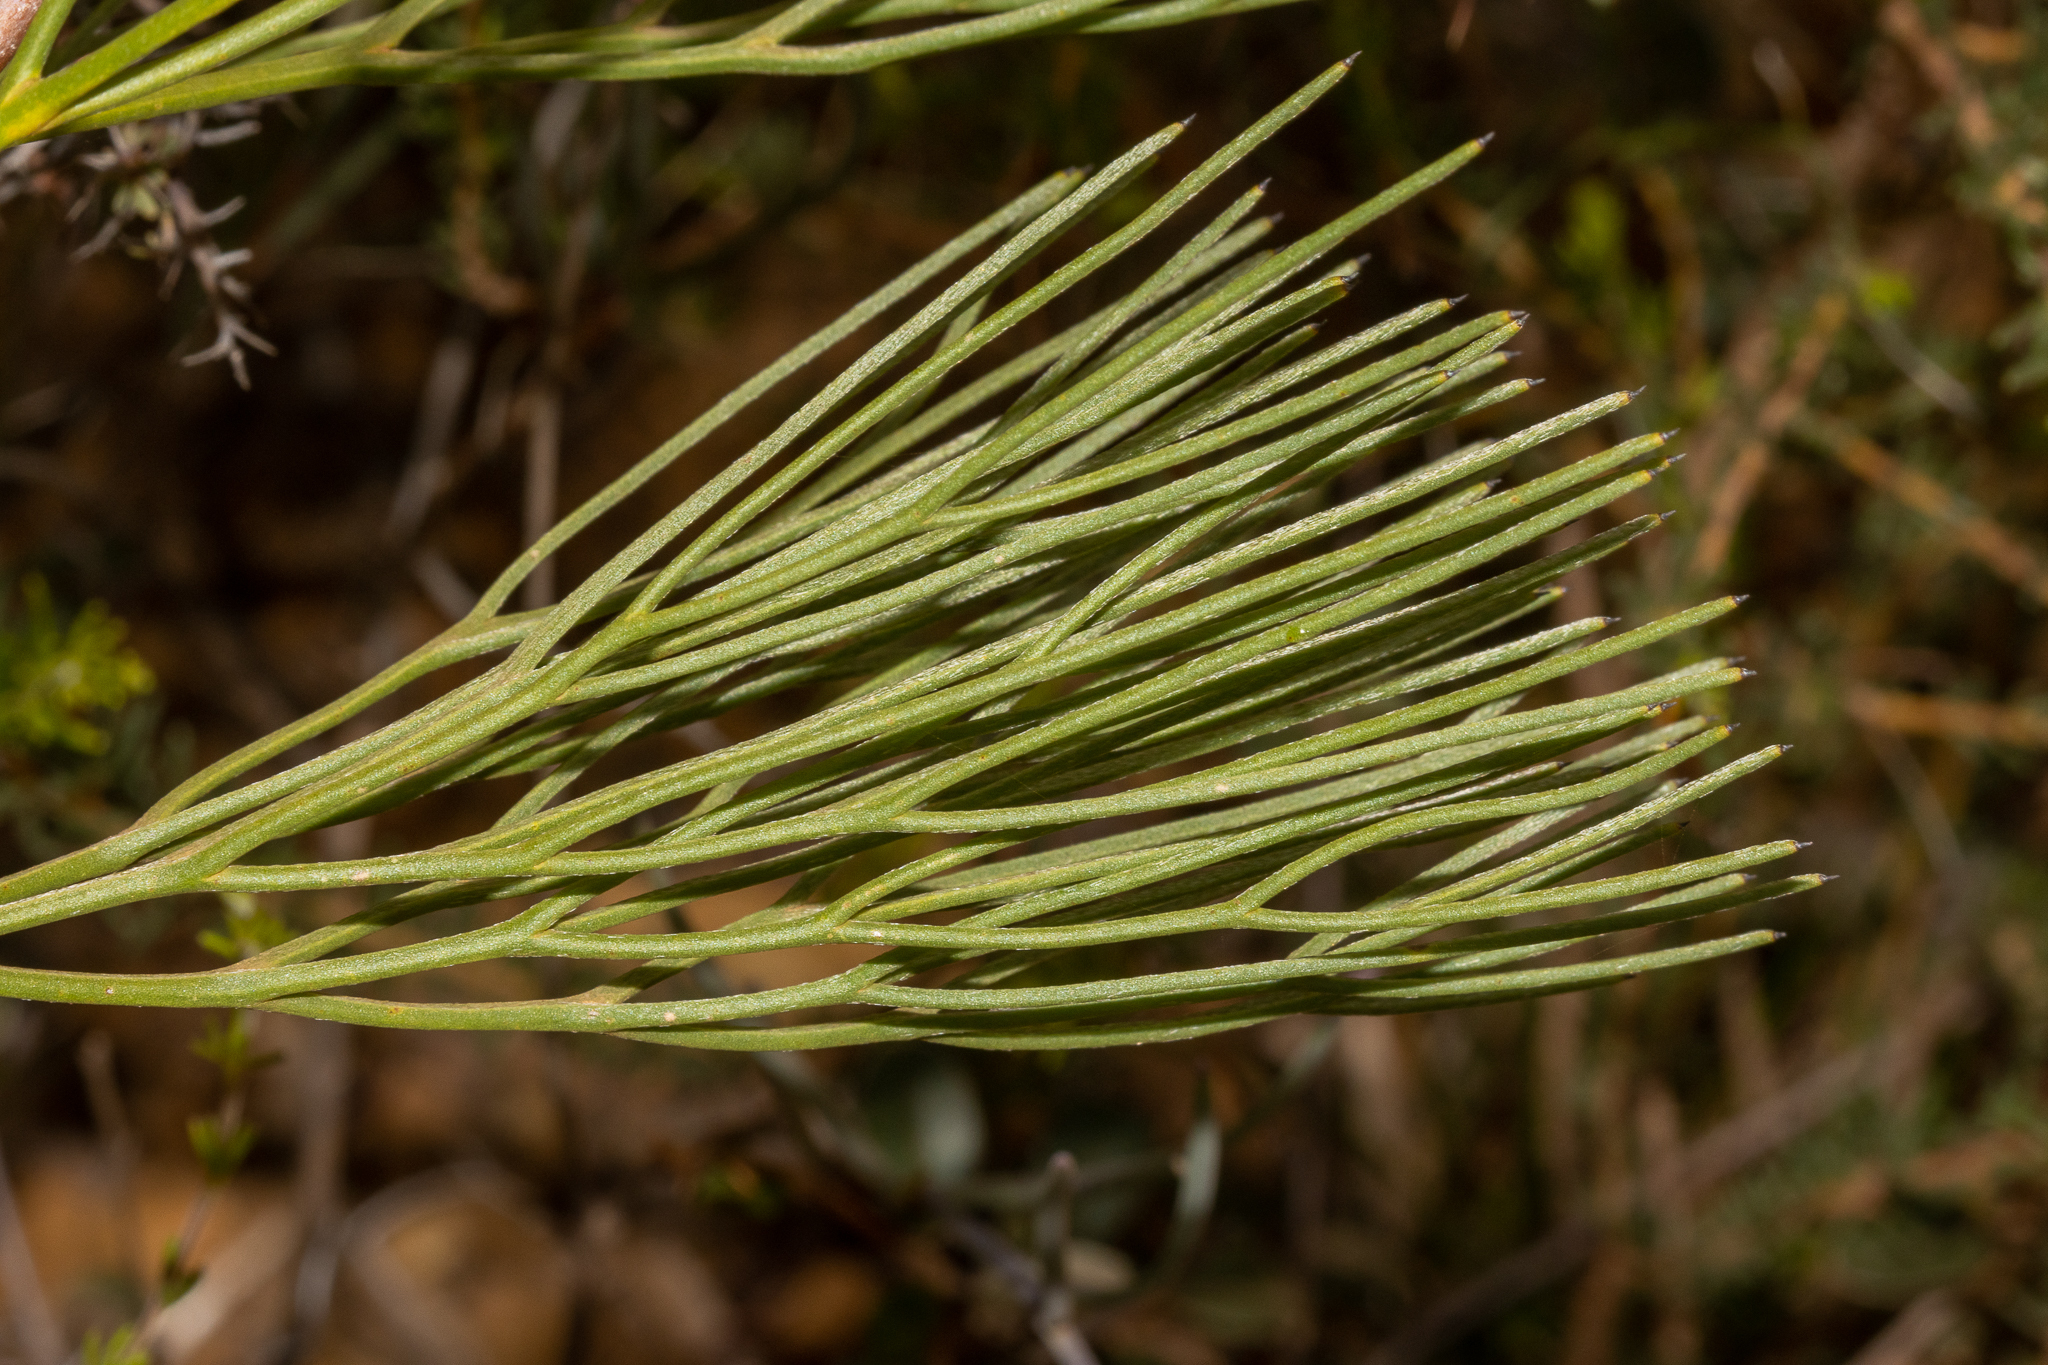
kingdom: Plantae
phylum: Tracheophyta
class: Magnoliopsida
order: Proteales
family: Proteaceae
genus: Grevillea
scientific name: Grevillea petrophiloides
